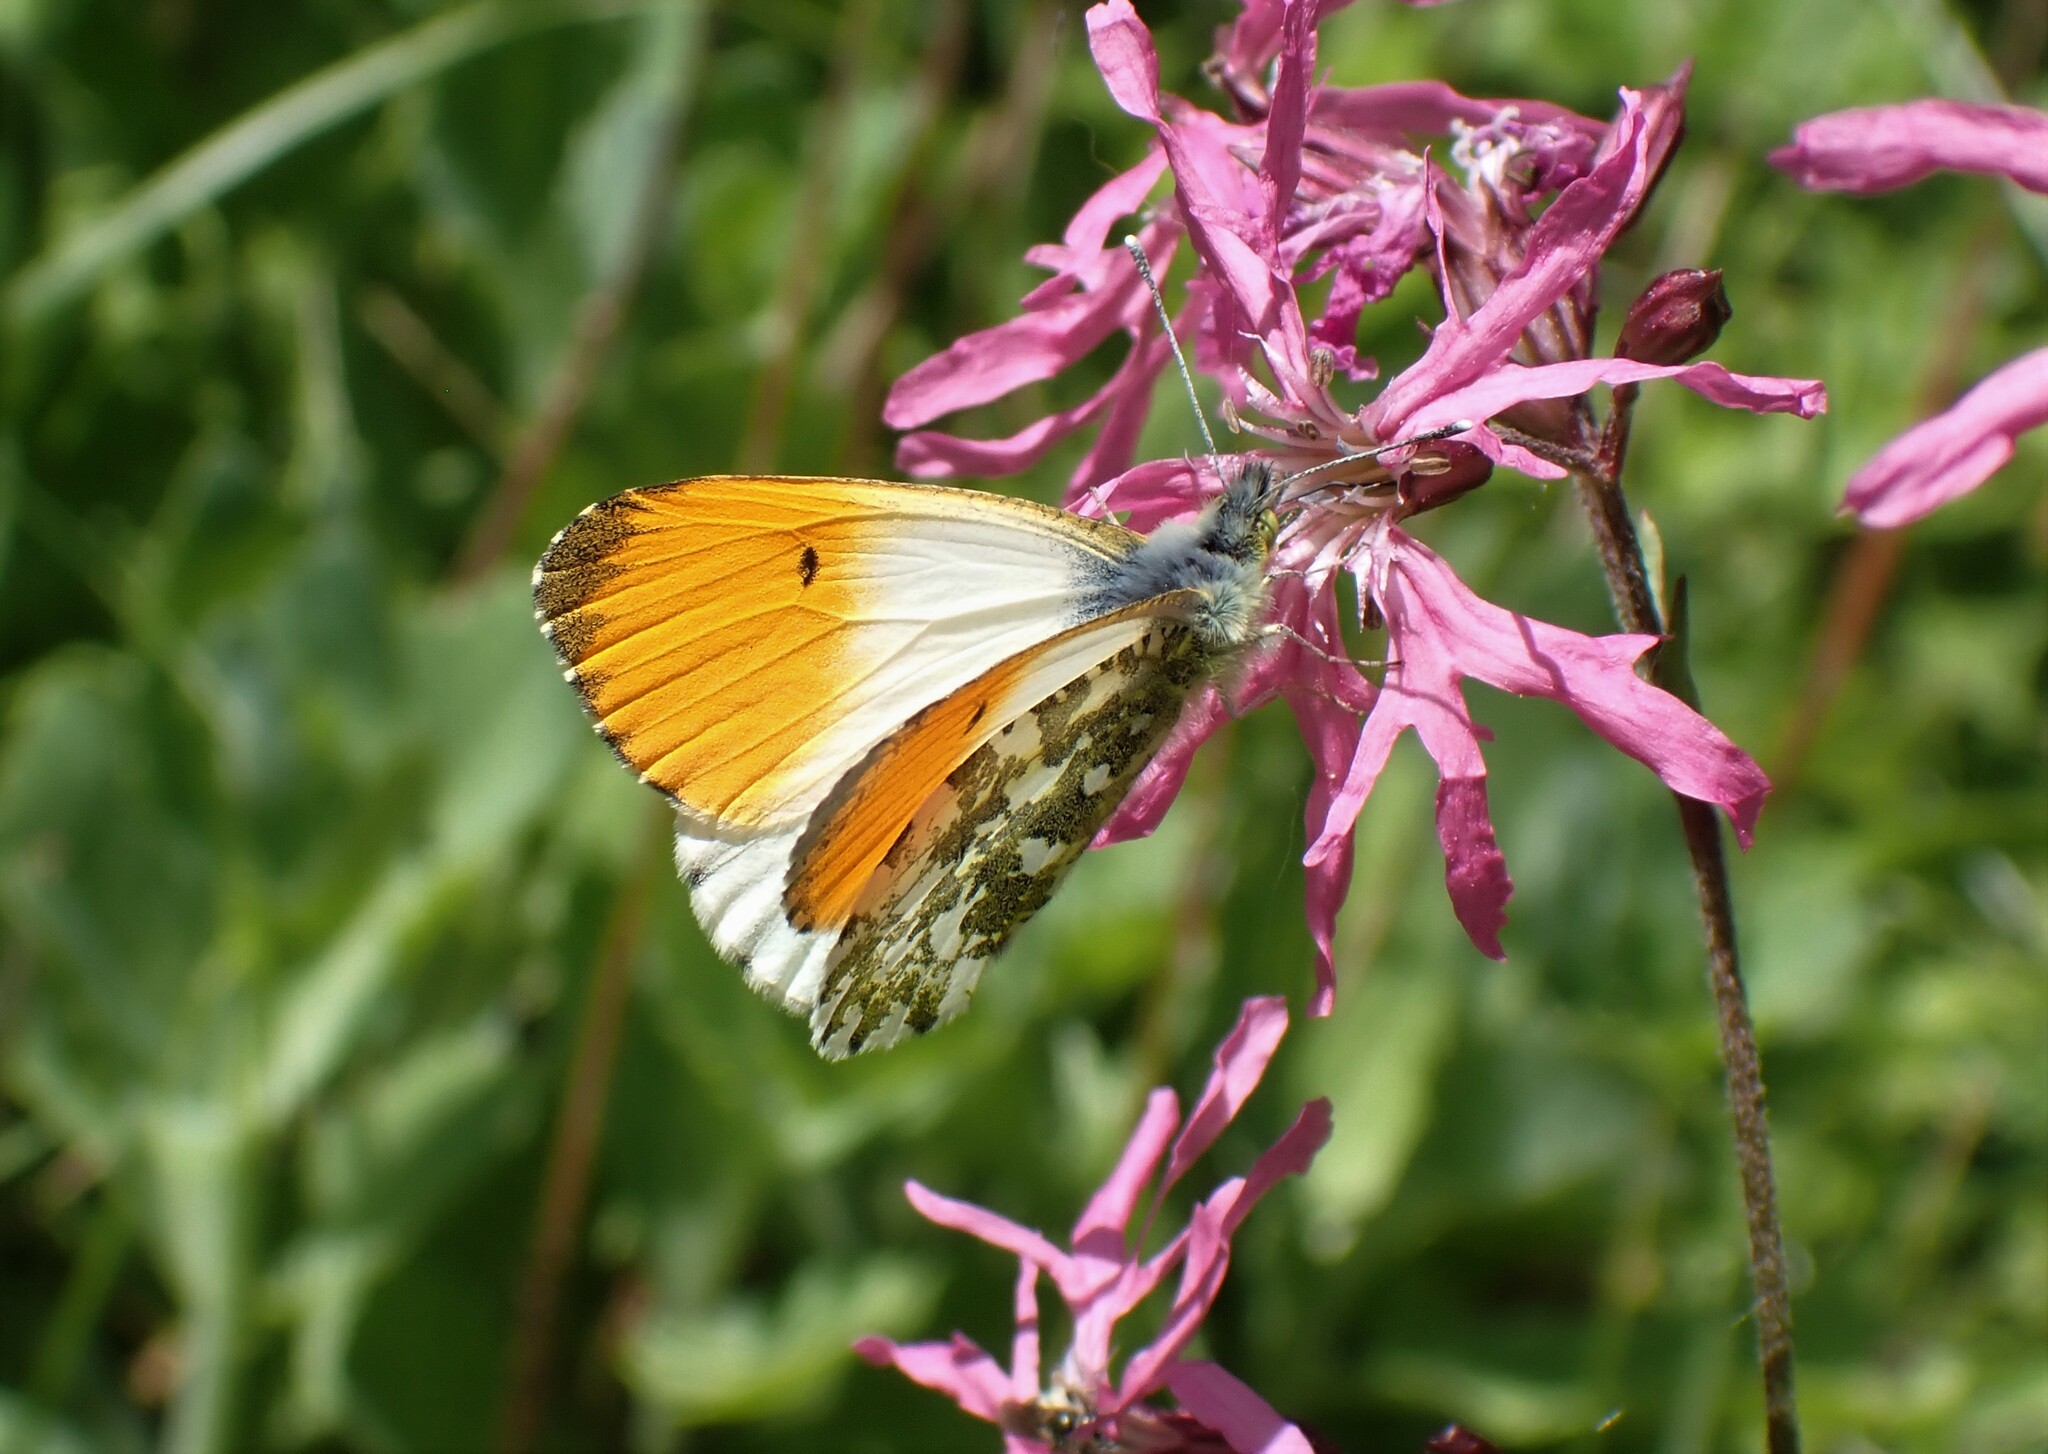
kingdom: Animalia
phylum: Arthropoda
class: Insecta
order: Lepidoptera
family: Pieridae
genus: Anthocharis
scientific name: Anthocharis cardamines
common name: Orange-tip
